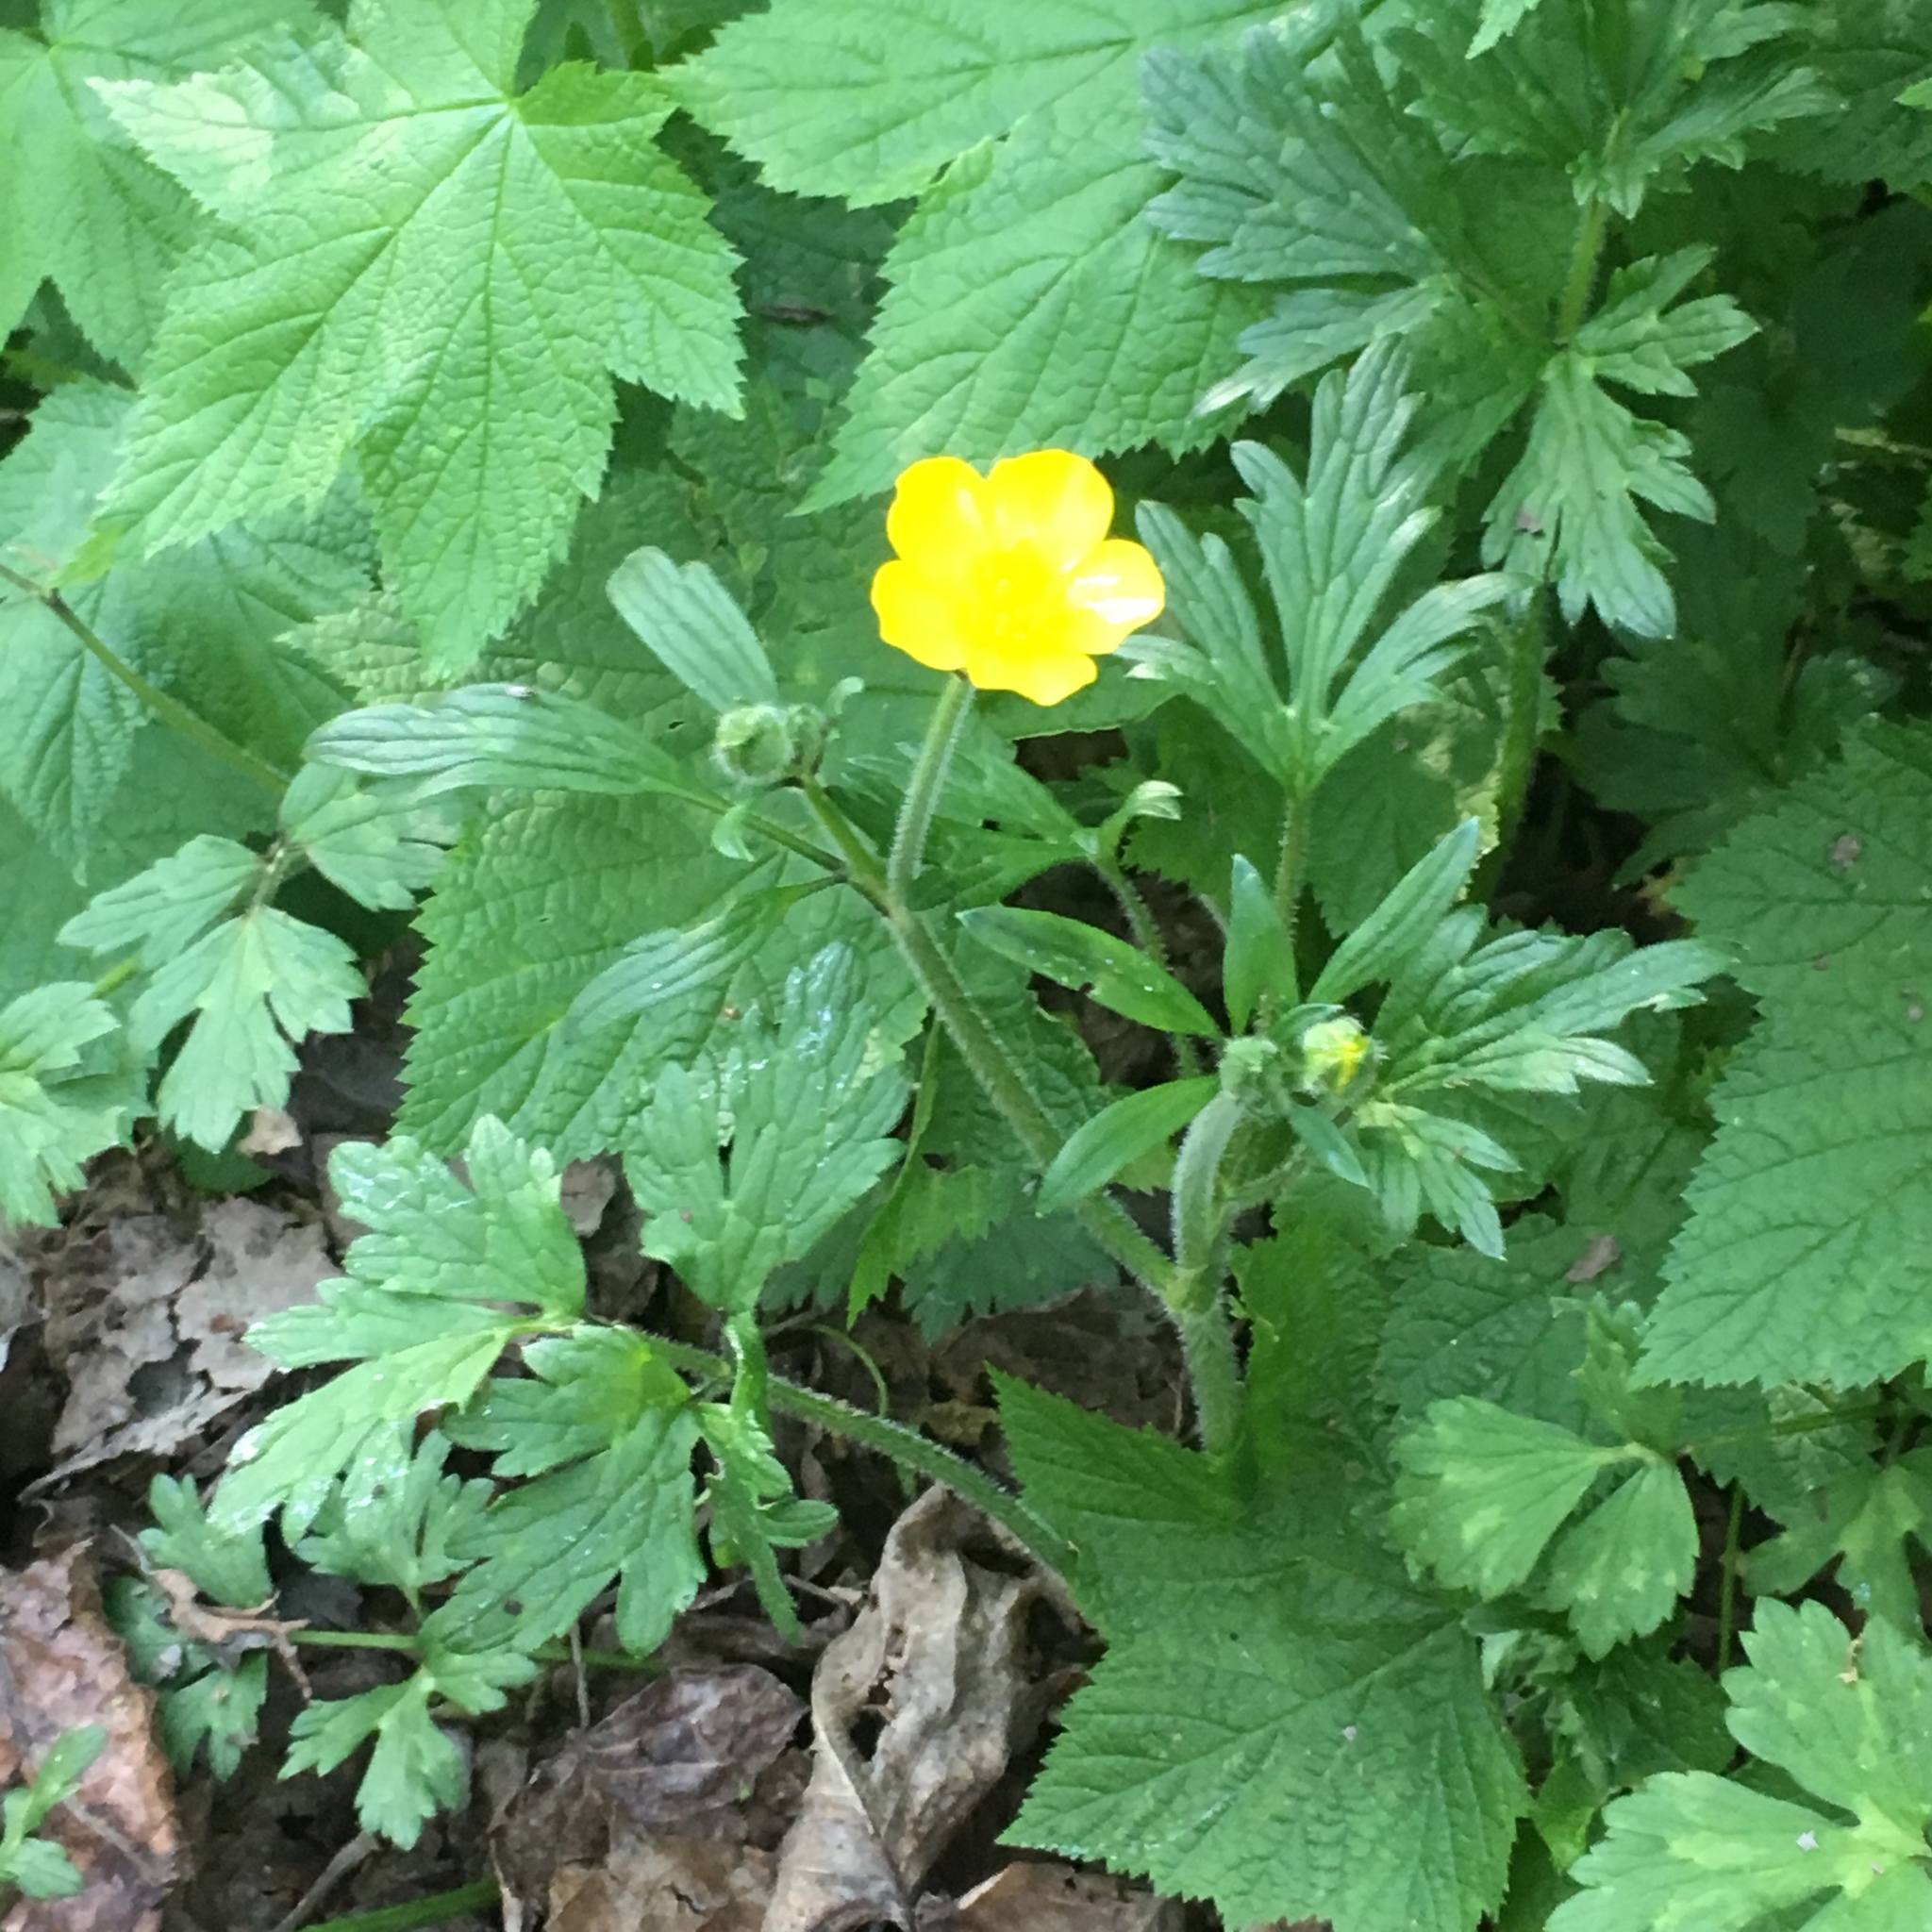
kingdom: Plantae
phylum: Tracheophyta
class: Magnoliopsida
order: Ranunculales
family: Ranunculaceae
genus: Ranunculus
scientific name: Ranunculus repens
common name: Creeping buttercup
